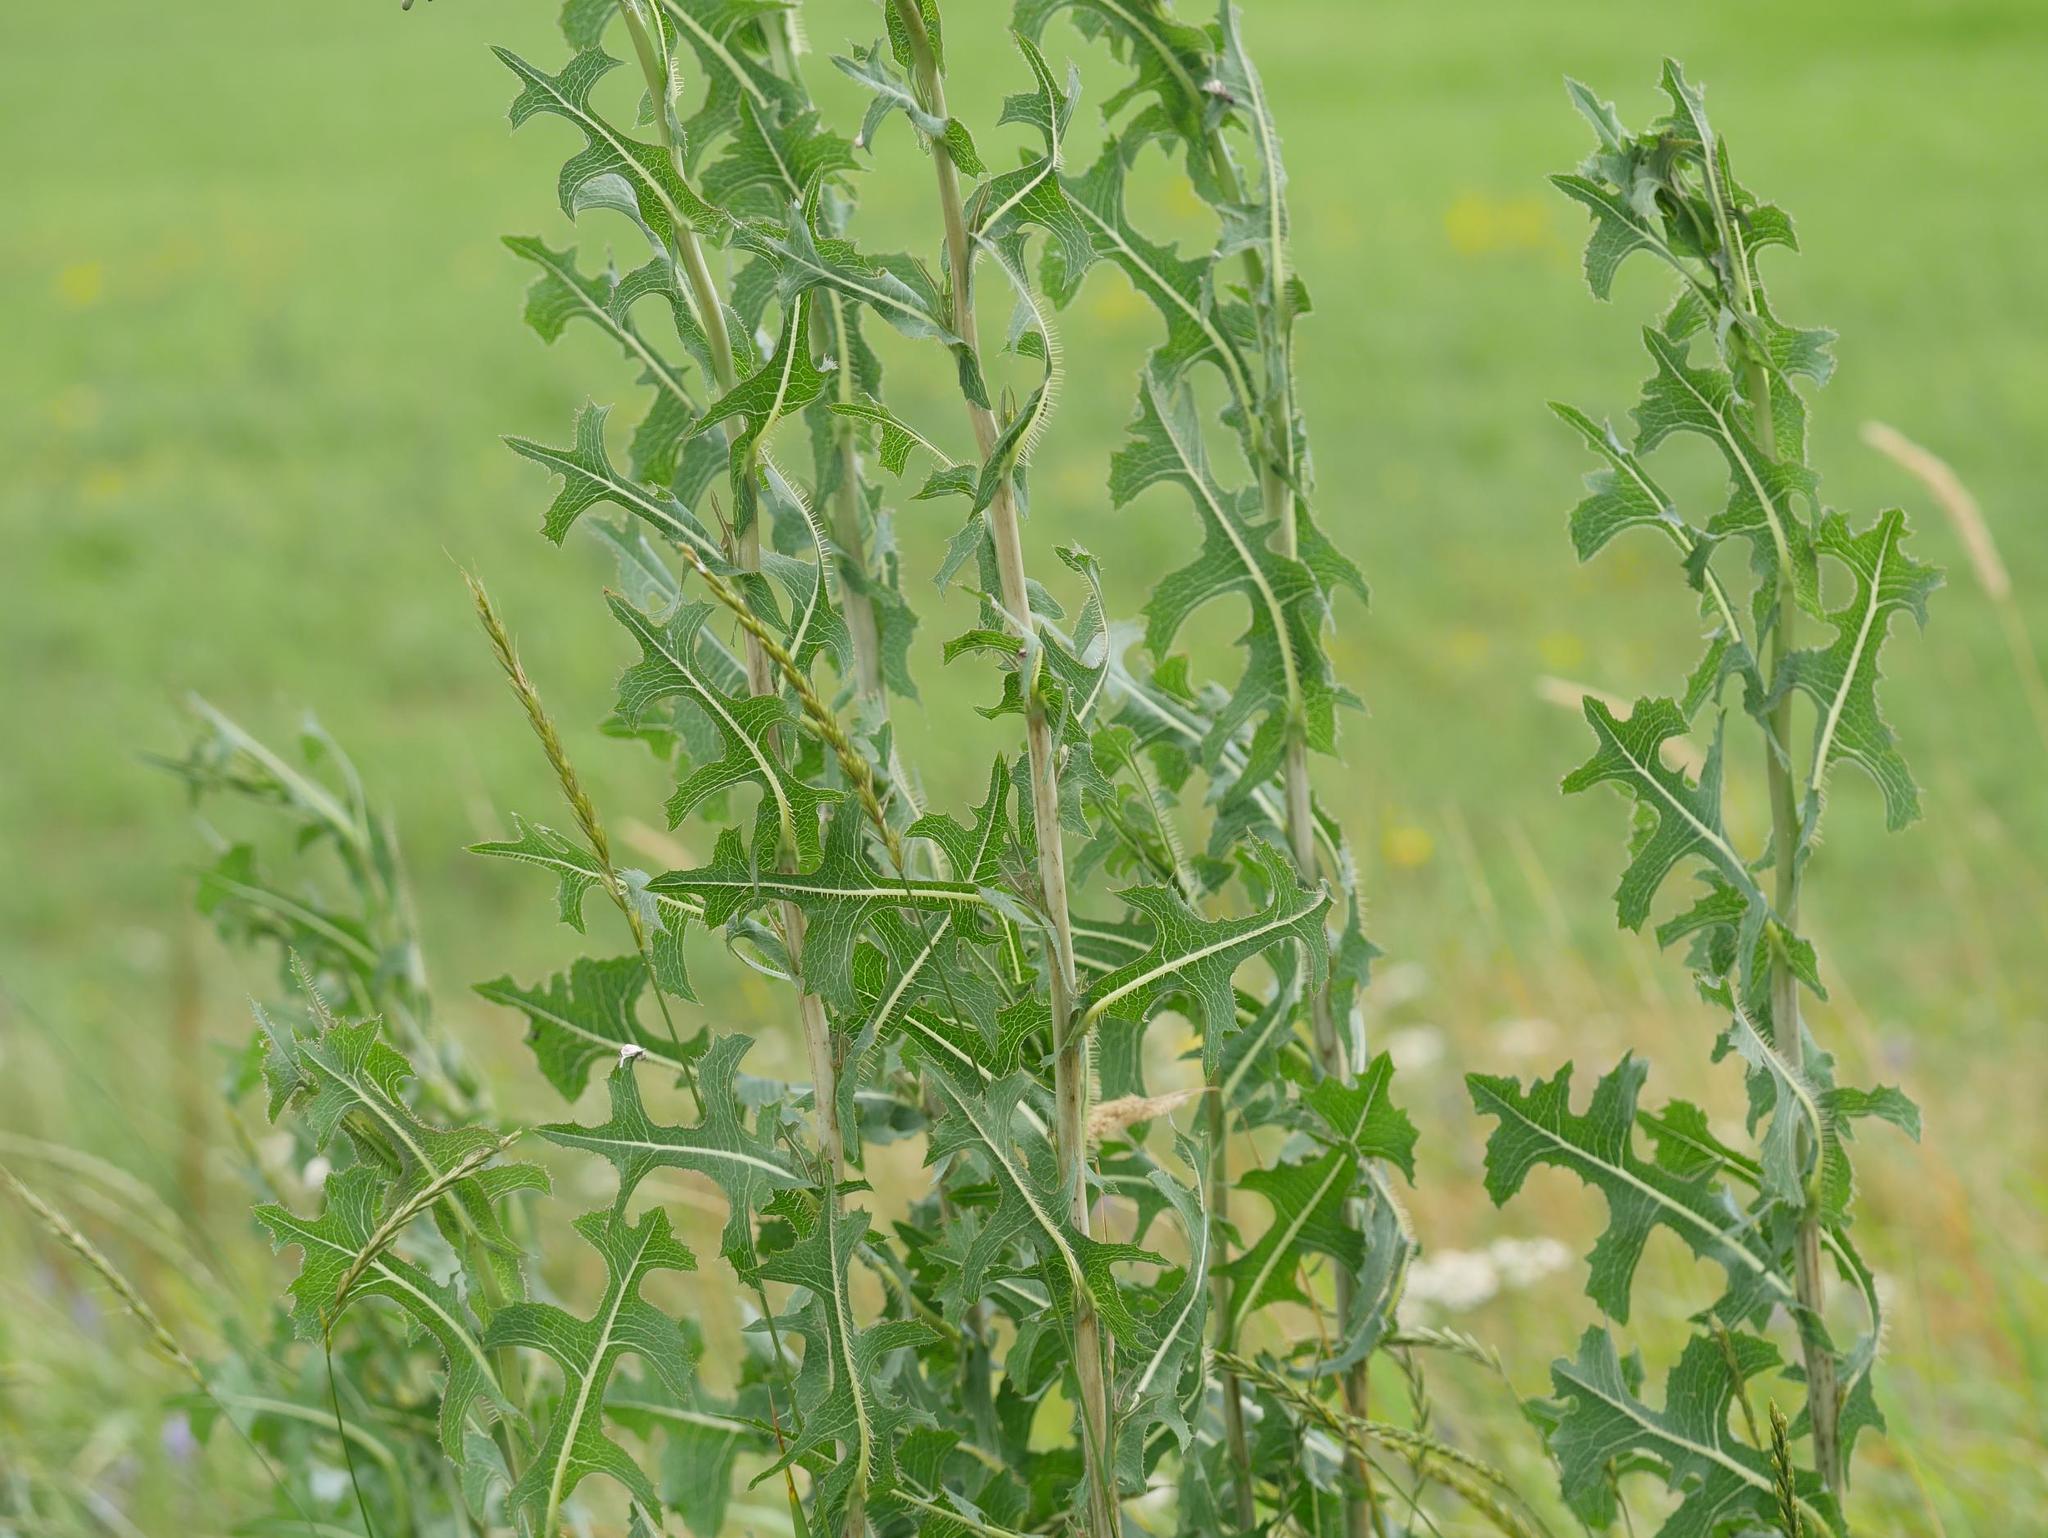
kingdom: Plantae
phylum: Tracheophyta
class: Magnoliopsida
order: Asterales
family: Asteraceae
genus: Lactuca
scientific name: Lactuca serriola
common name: Prickly lettuce
